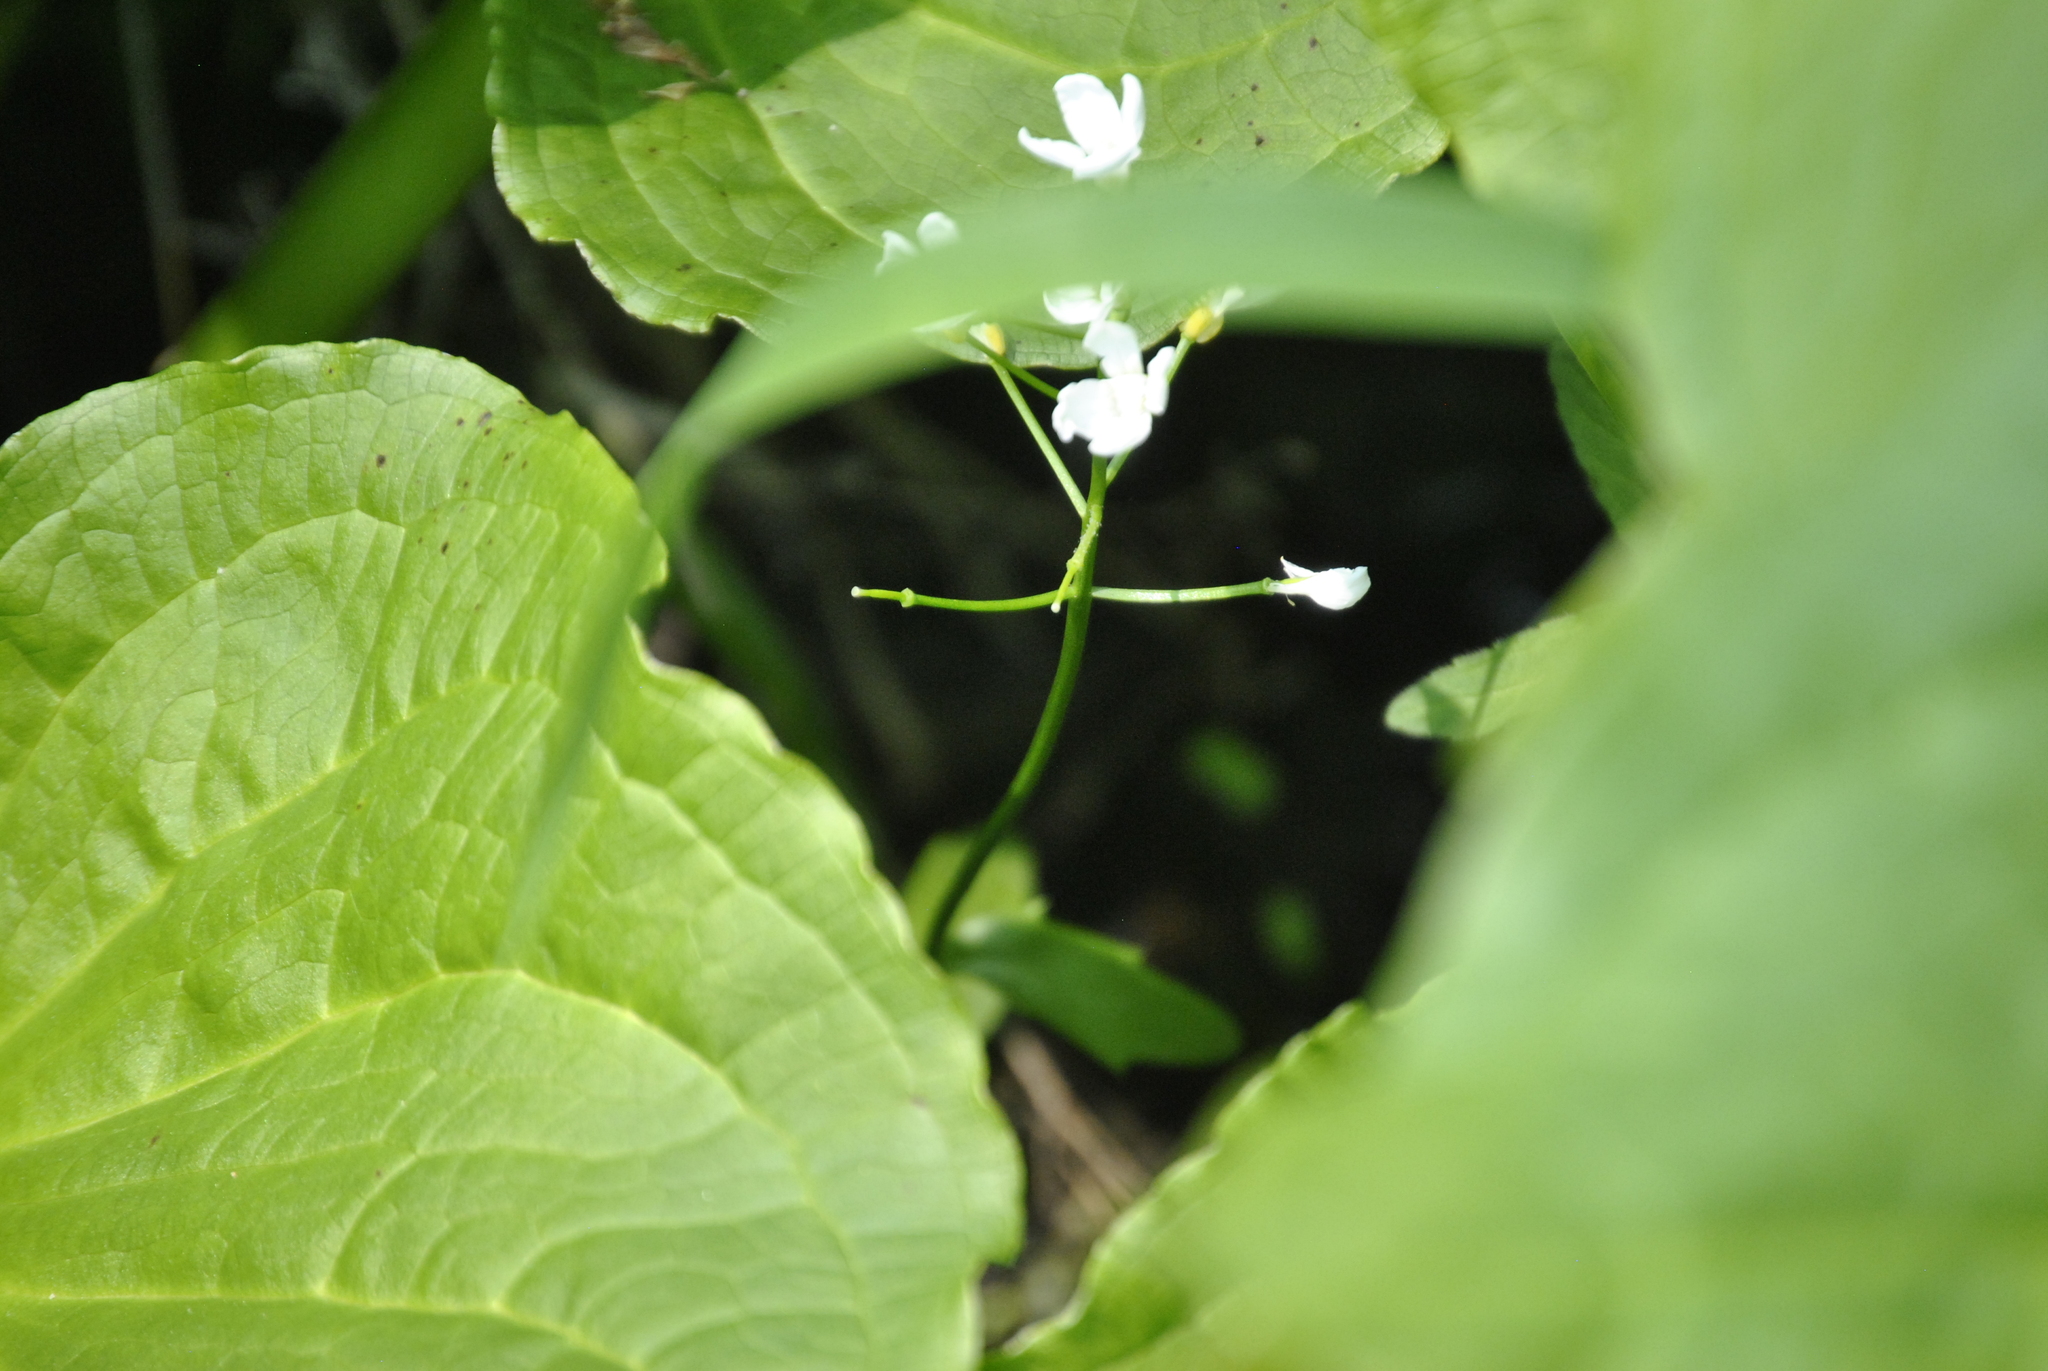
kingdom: Plantae
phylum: Tracheophyta
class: Magnoliopsida
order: Brassicales
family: Brassicaceae
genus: Cardamine
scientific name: Cardamine bulbosa
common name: Spring cress
